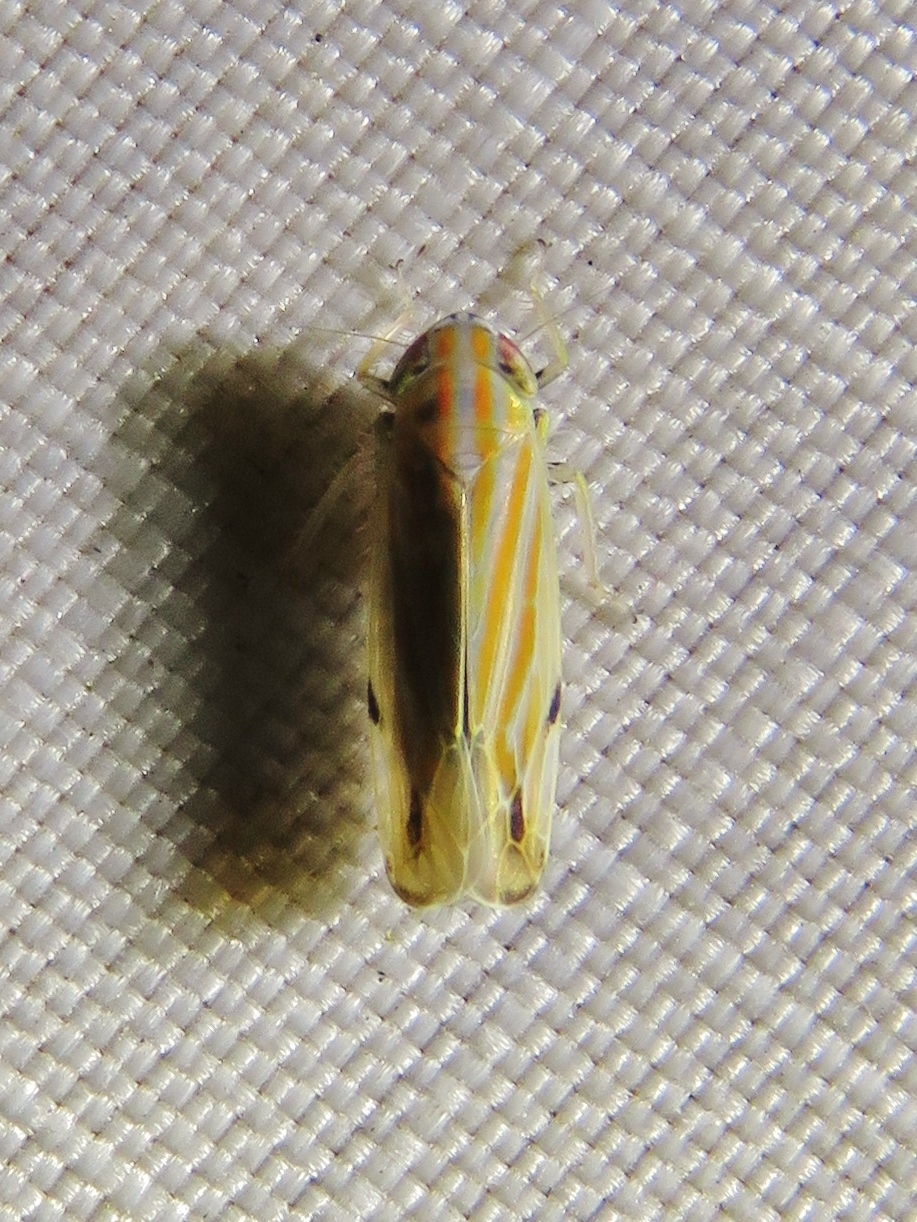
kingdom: Animalia
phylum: Arthropoda
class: Insecta
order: Hemiptera
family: Cicadellidae
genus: Deltanus
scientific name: Deltanus texanus
